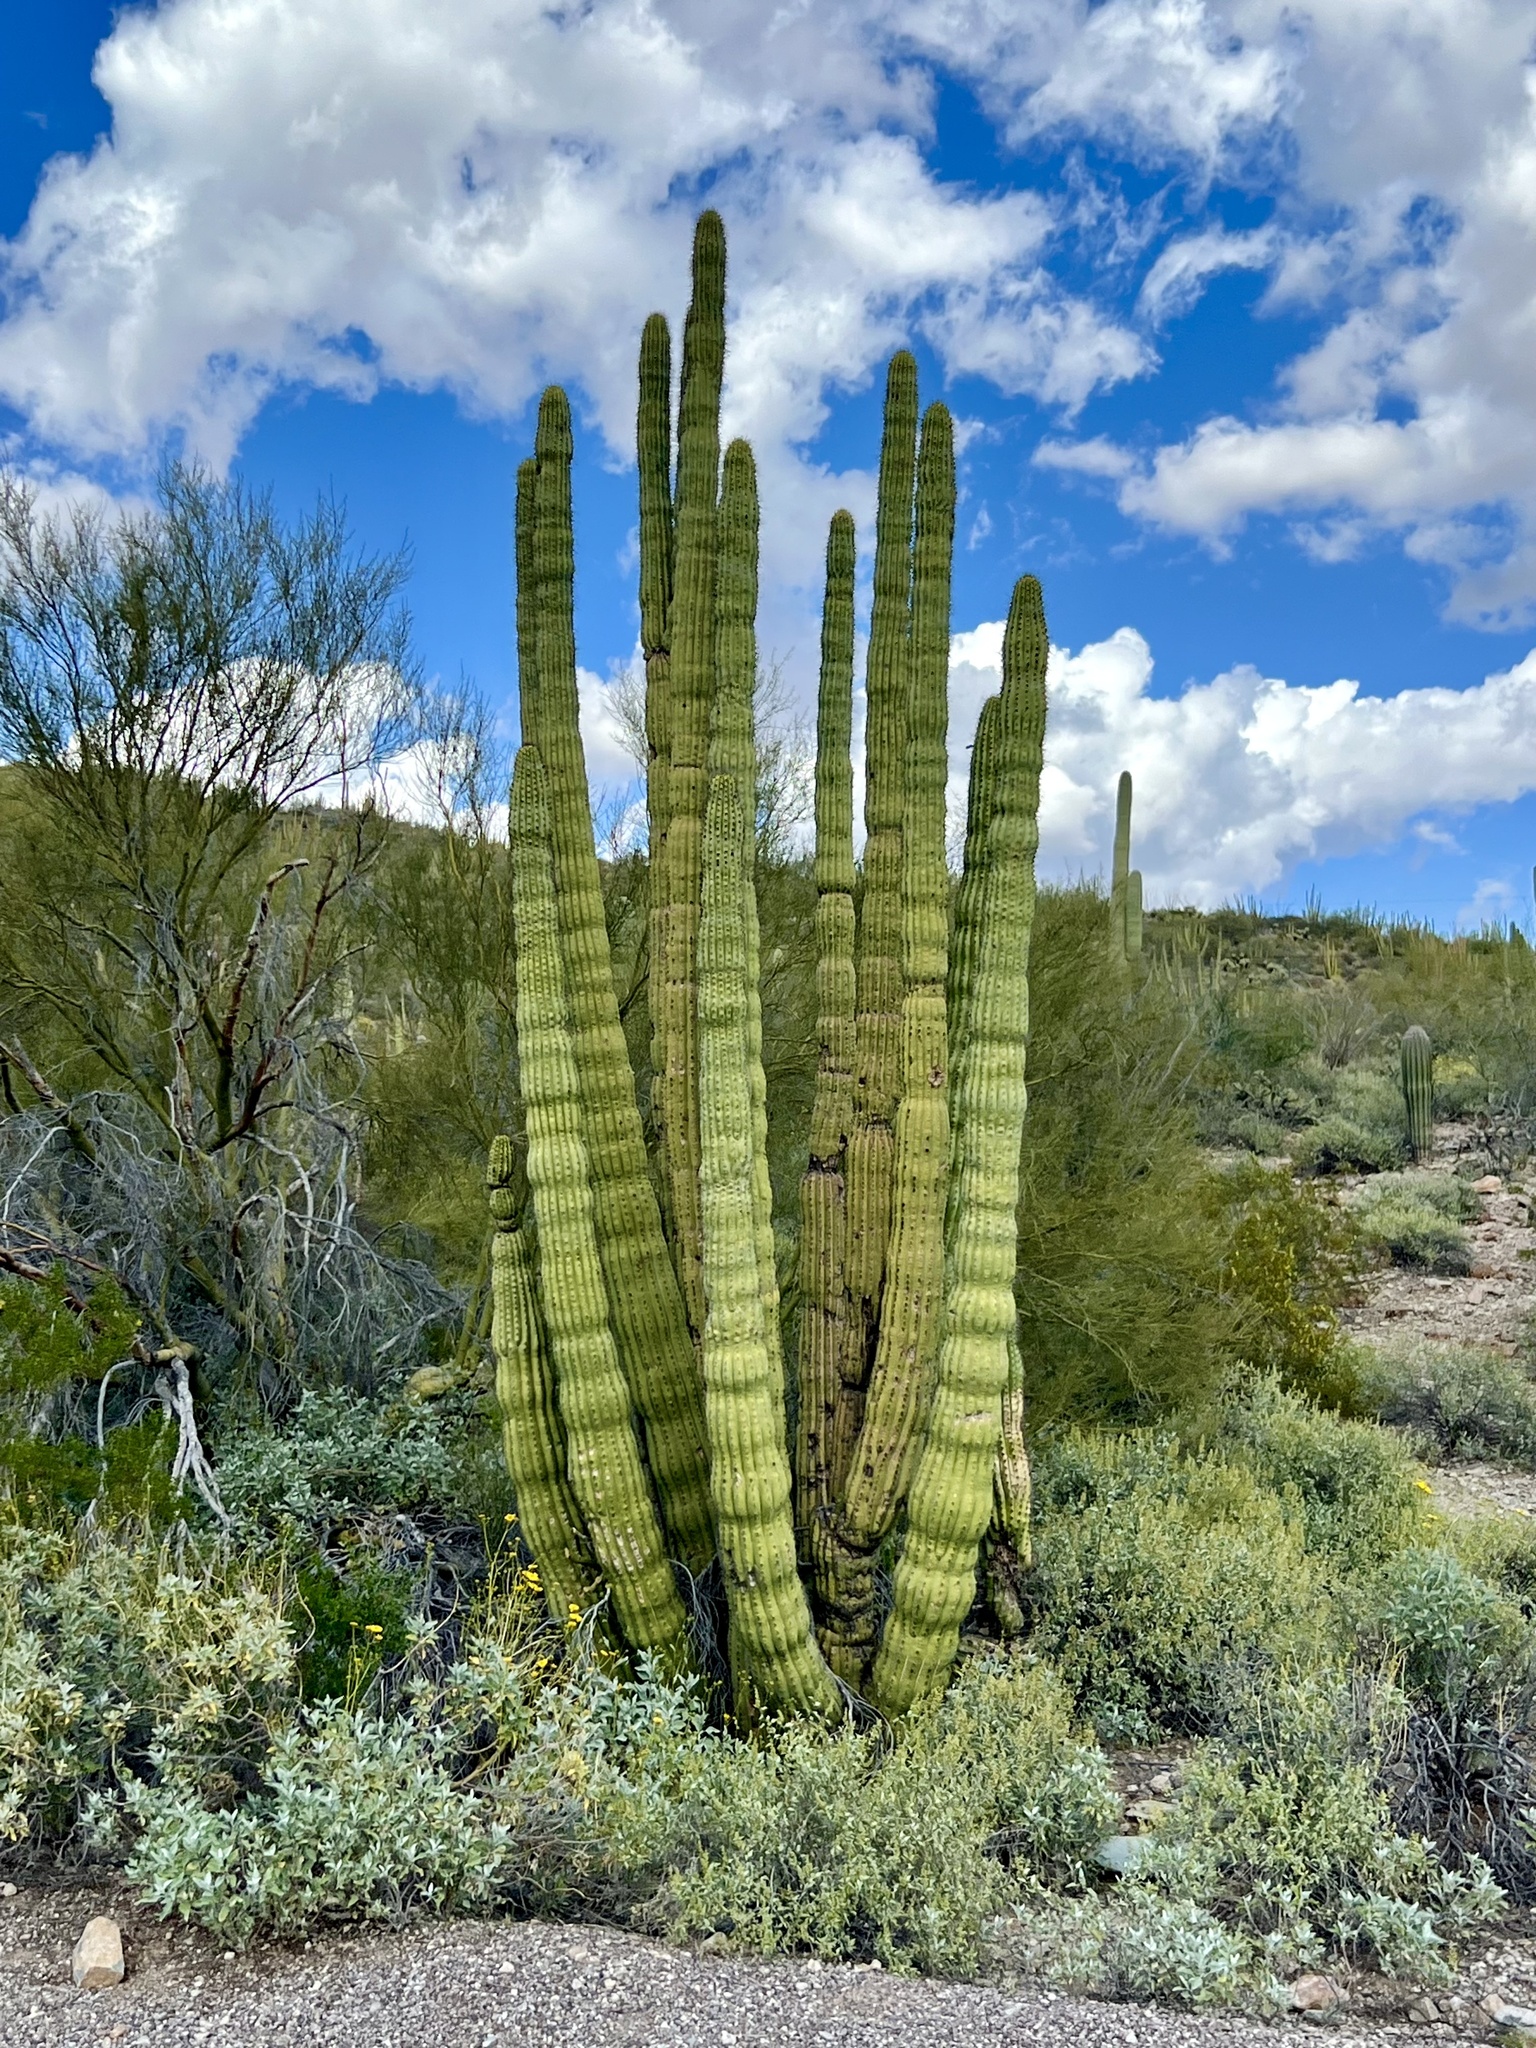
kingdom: Plantae
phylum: Tracheophyta
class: Magnoliopsida
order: Caryophyllales
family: Cactaceae
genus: Stenocereus
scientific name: Stenocereus thurberi
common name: Organ pipe cactus
